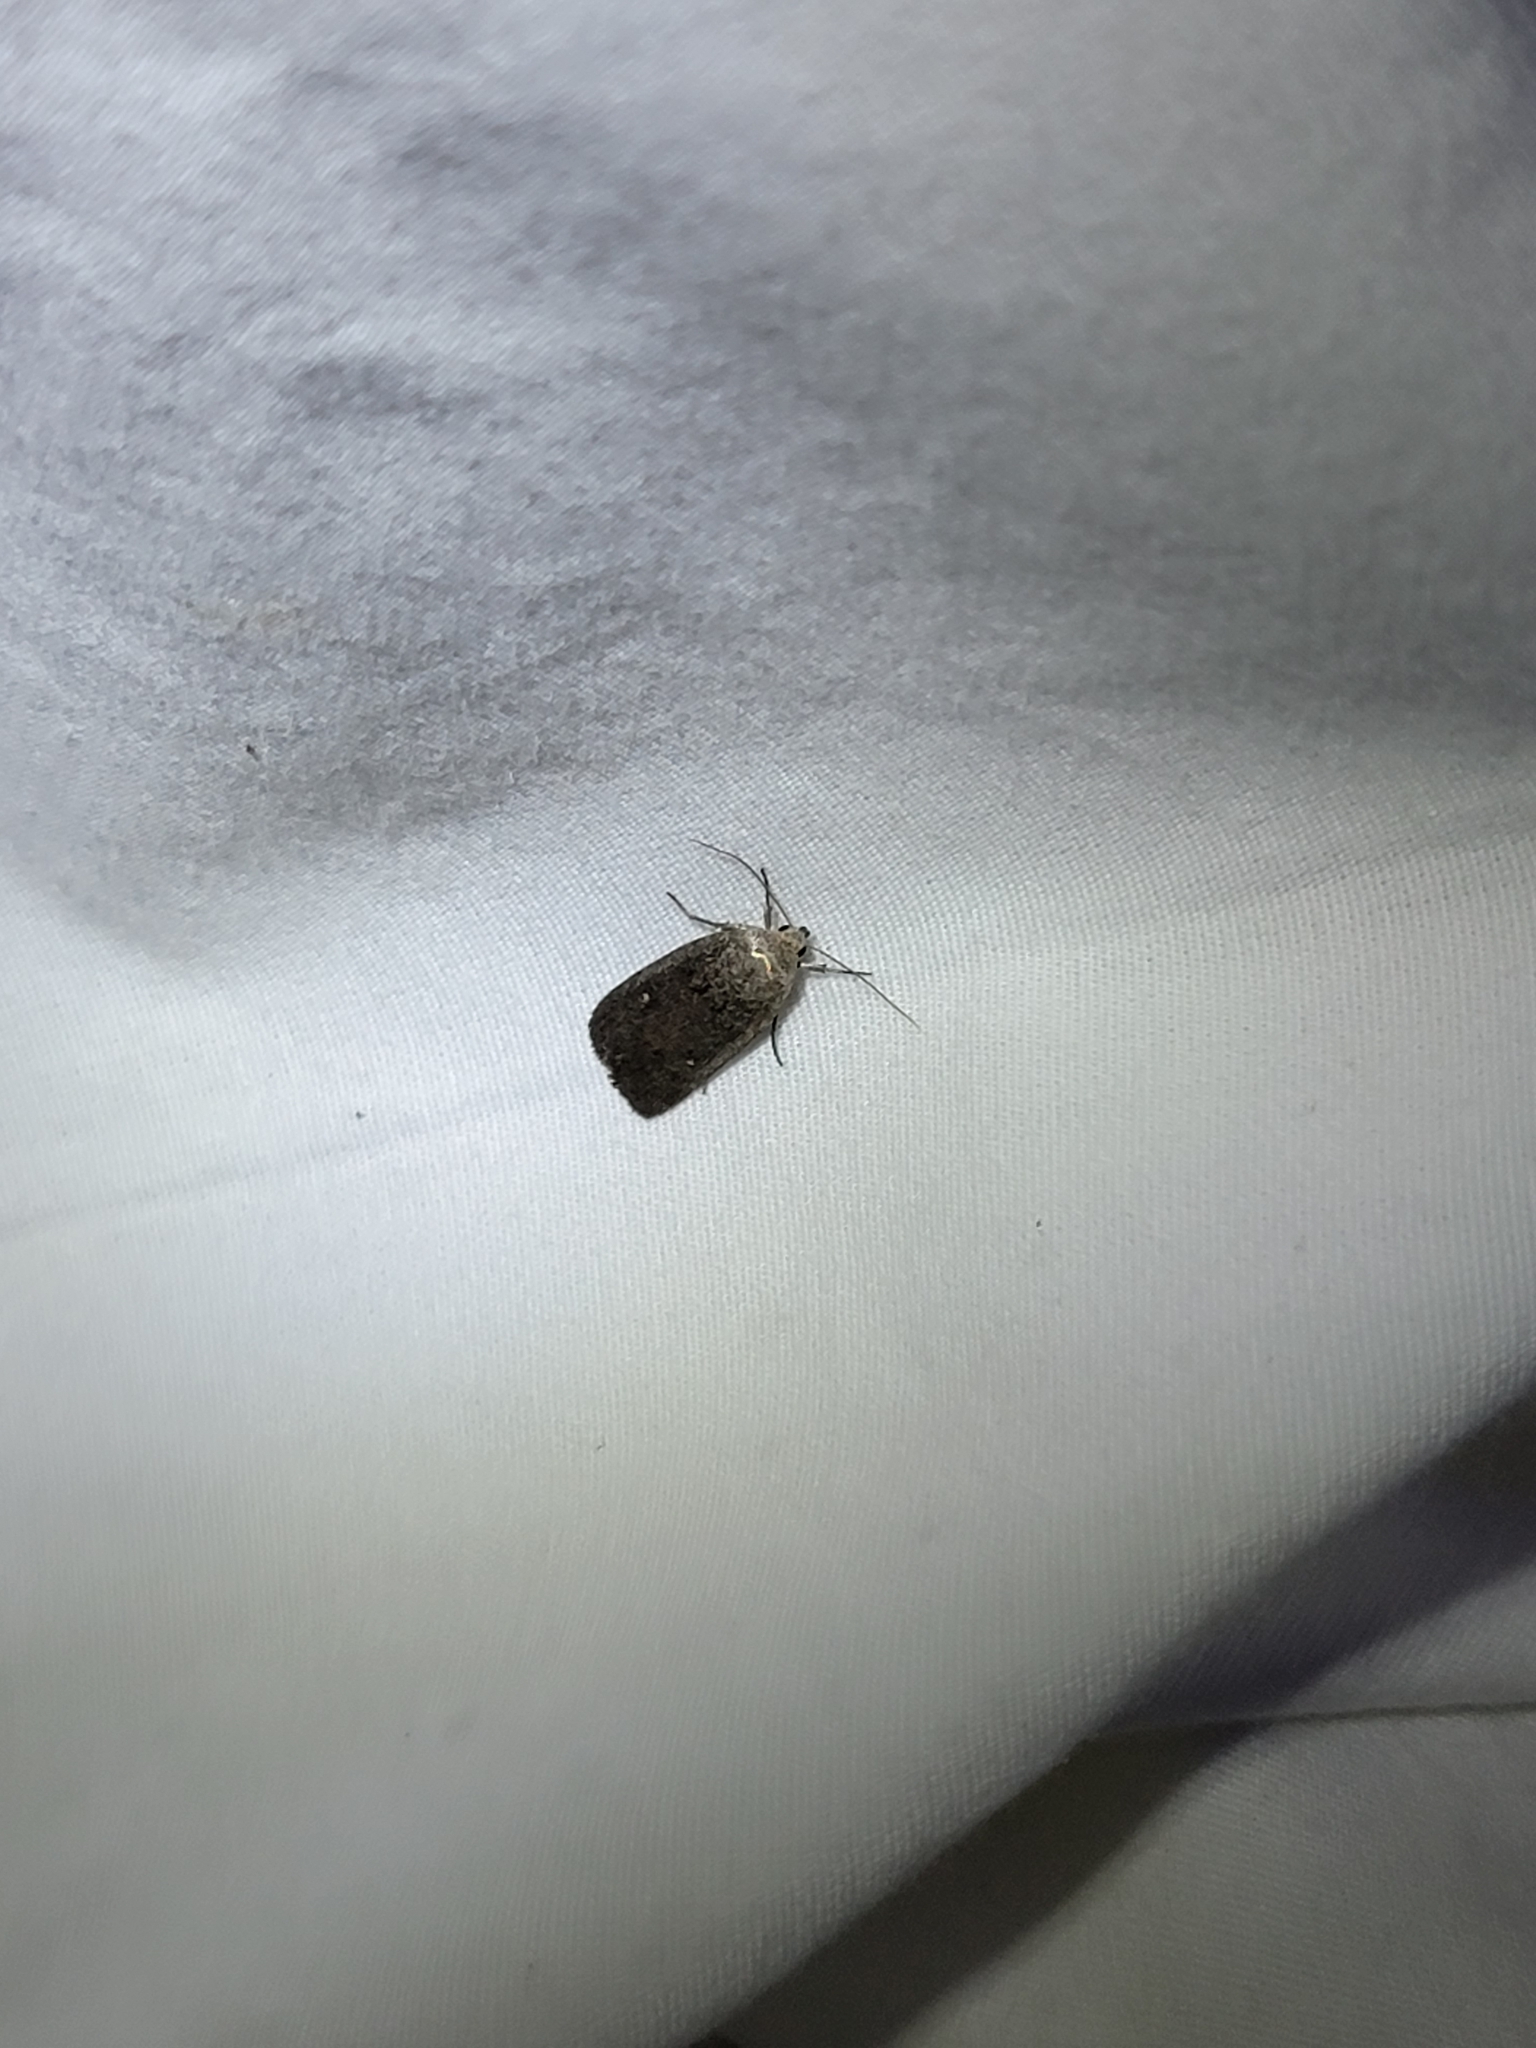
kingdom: Animalia
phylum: Arthropoda
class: Insecta
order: Lepidoptera
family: Noctuidae
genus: Proxenus
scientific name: Proxenus miranda
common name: Miranda moth
